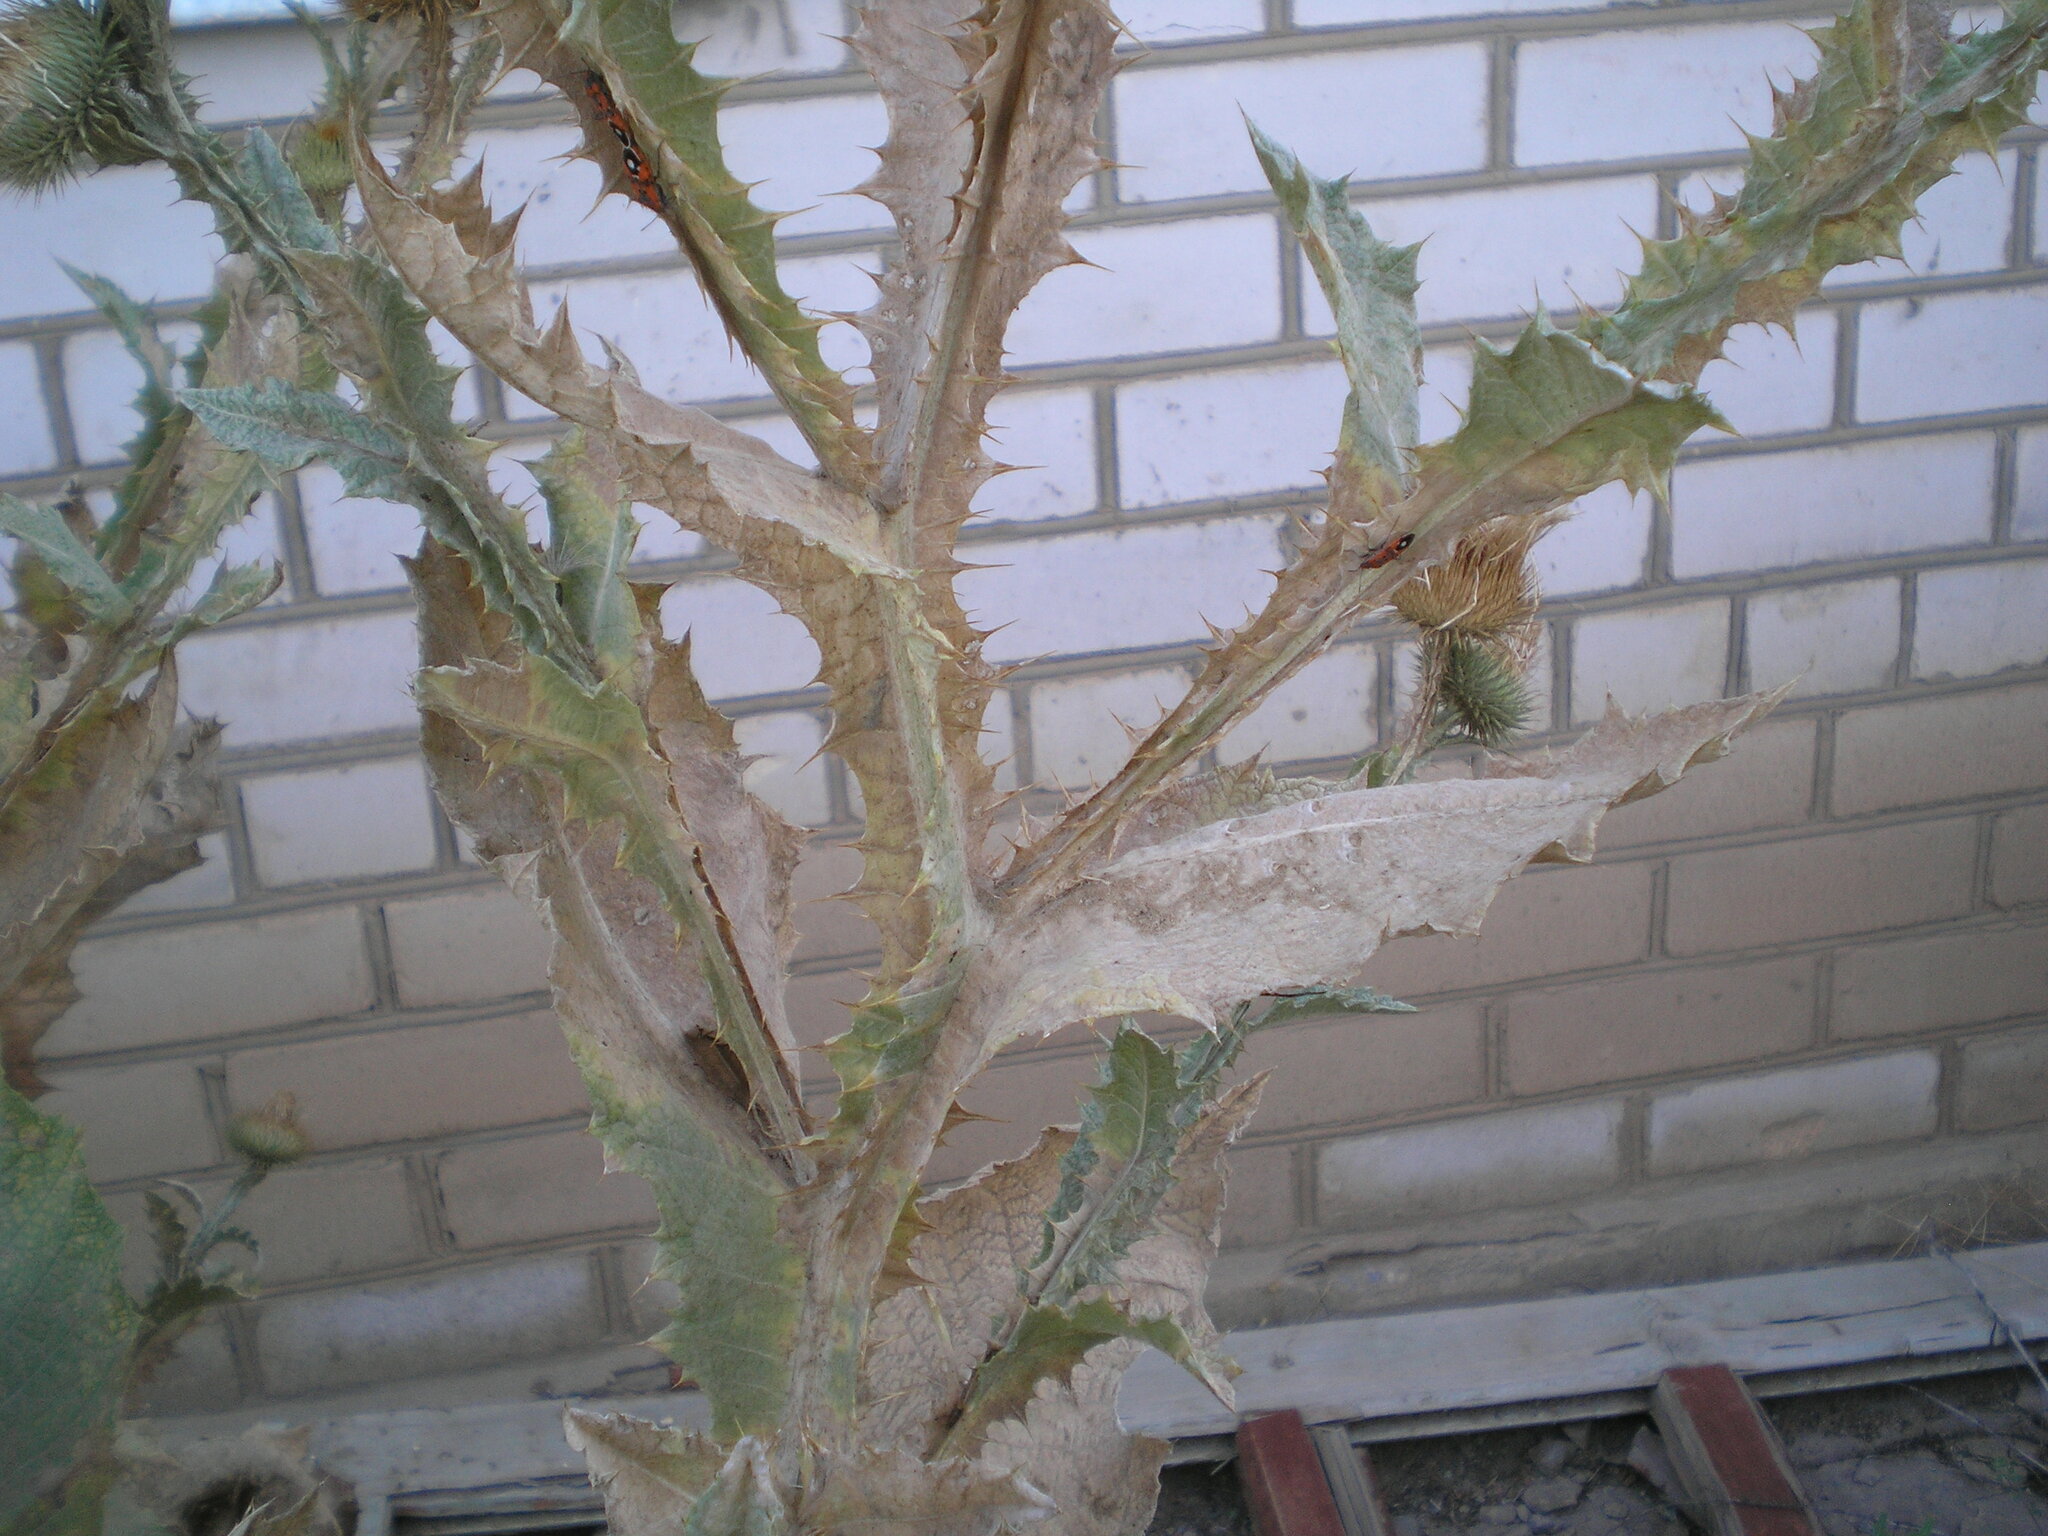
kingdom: Plantae
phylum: Tracheophyta
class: Magnoliopsida
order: Asterales
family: Asteraceae
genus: Onopordum
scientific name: Onopordum acanthium
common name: Scotch thistle
